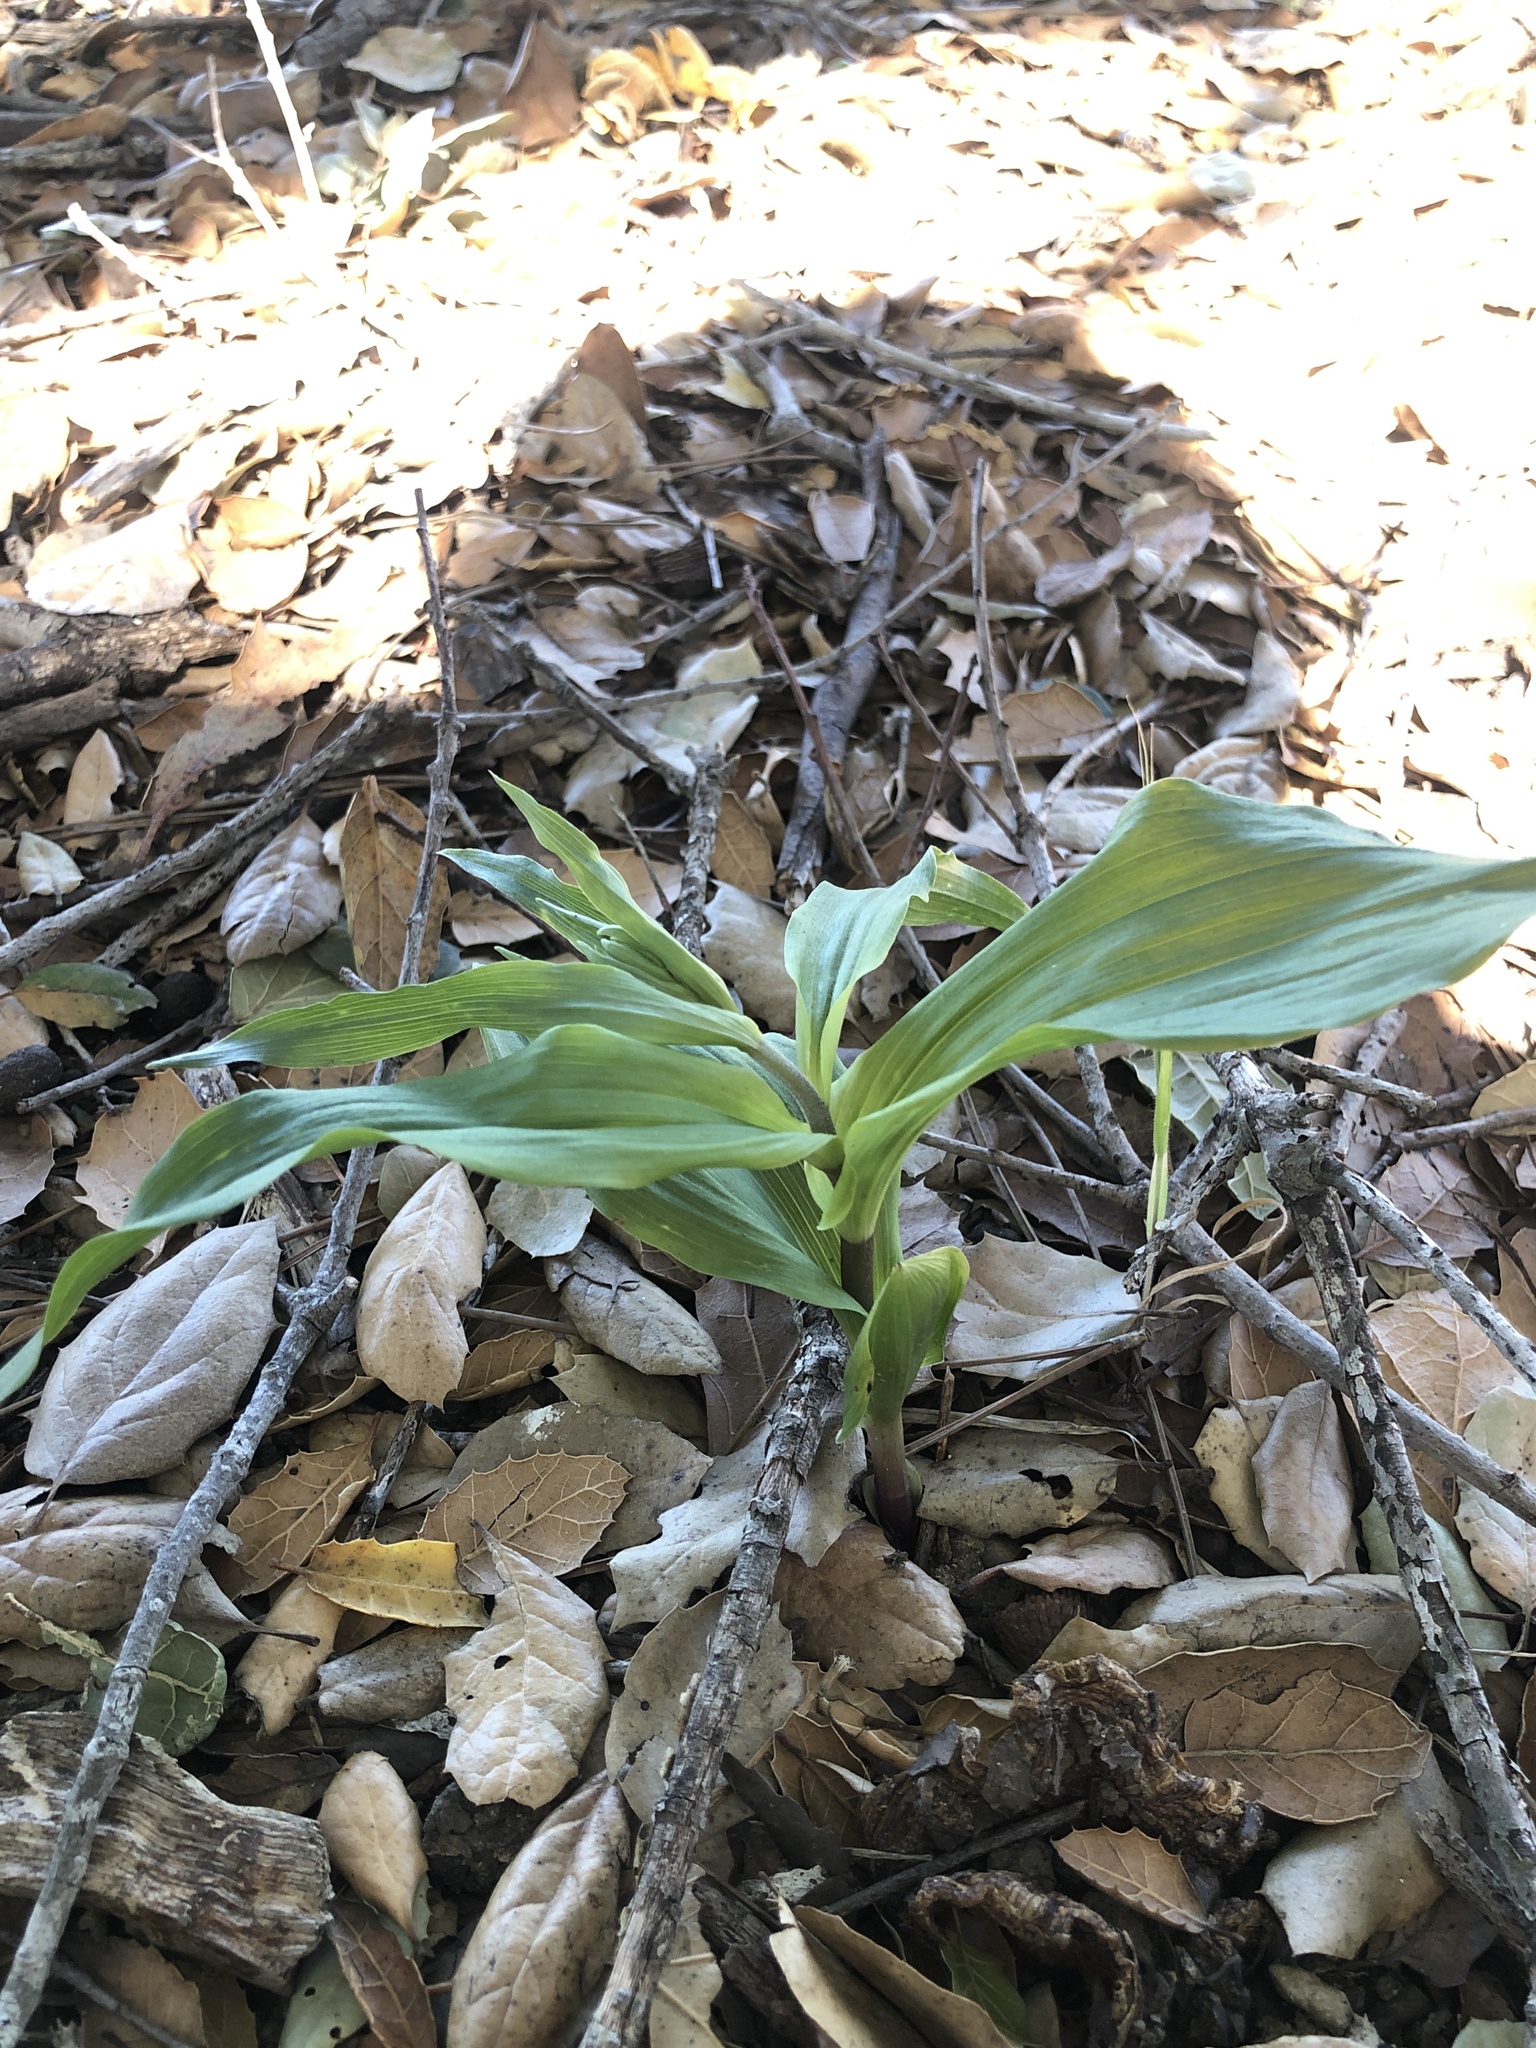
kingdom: Plantae
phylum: Tracheophyta
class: Liliopsida
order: Asparagales
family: Orchidaceae
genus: Epipactis
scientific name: Epipactis helleborine
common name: Broad-leaved helleborine
